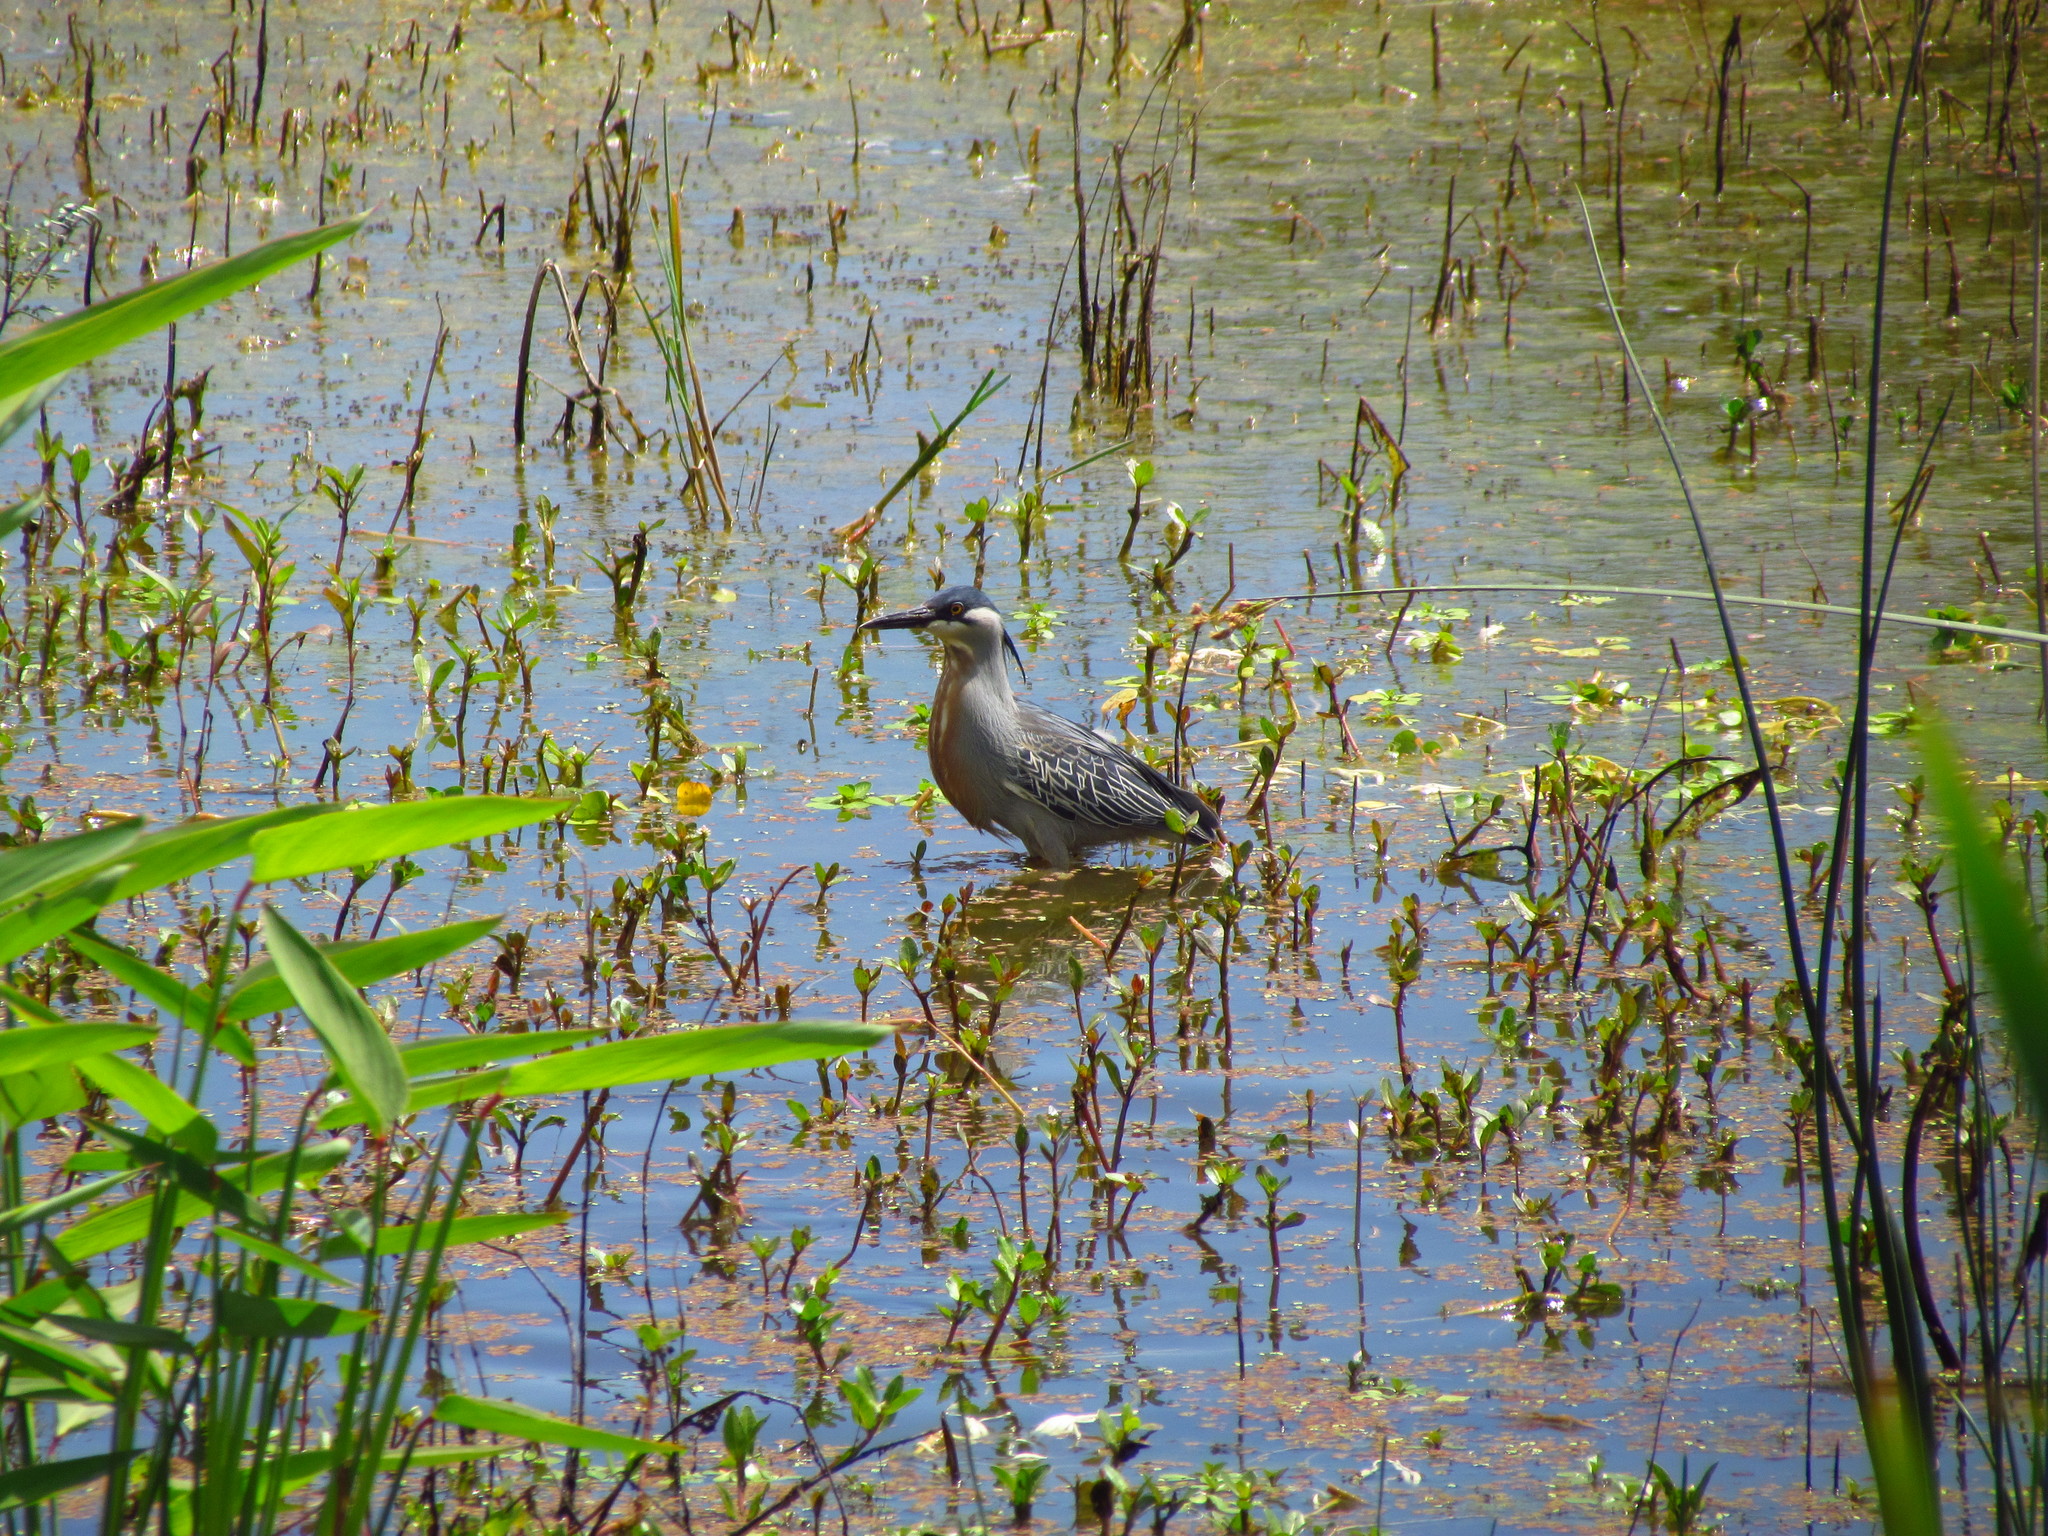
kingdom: Animalia
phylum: Chordata
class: Aves
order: Pelecaniformes
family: Ardeidae
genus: Butorides
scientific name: Butorides striata
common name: Striated heron
